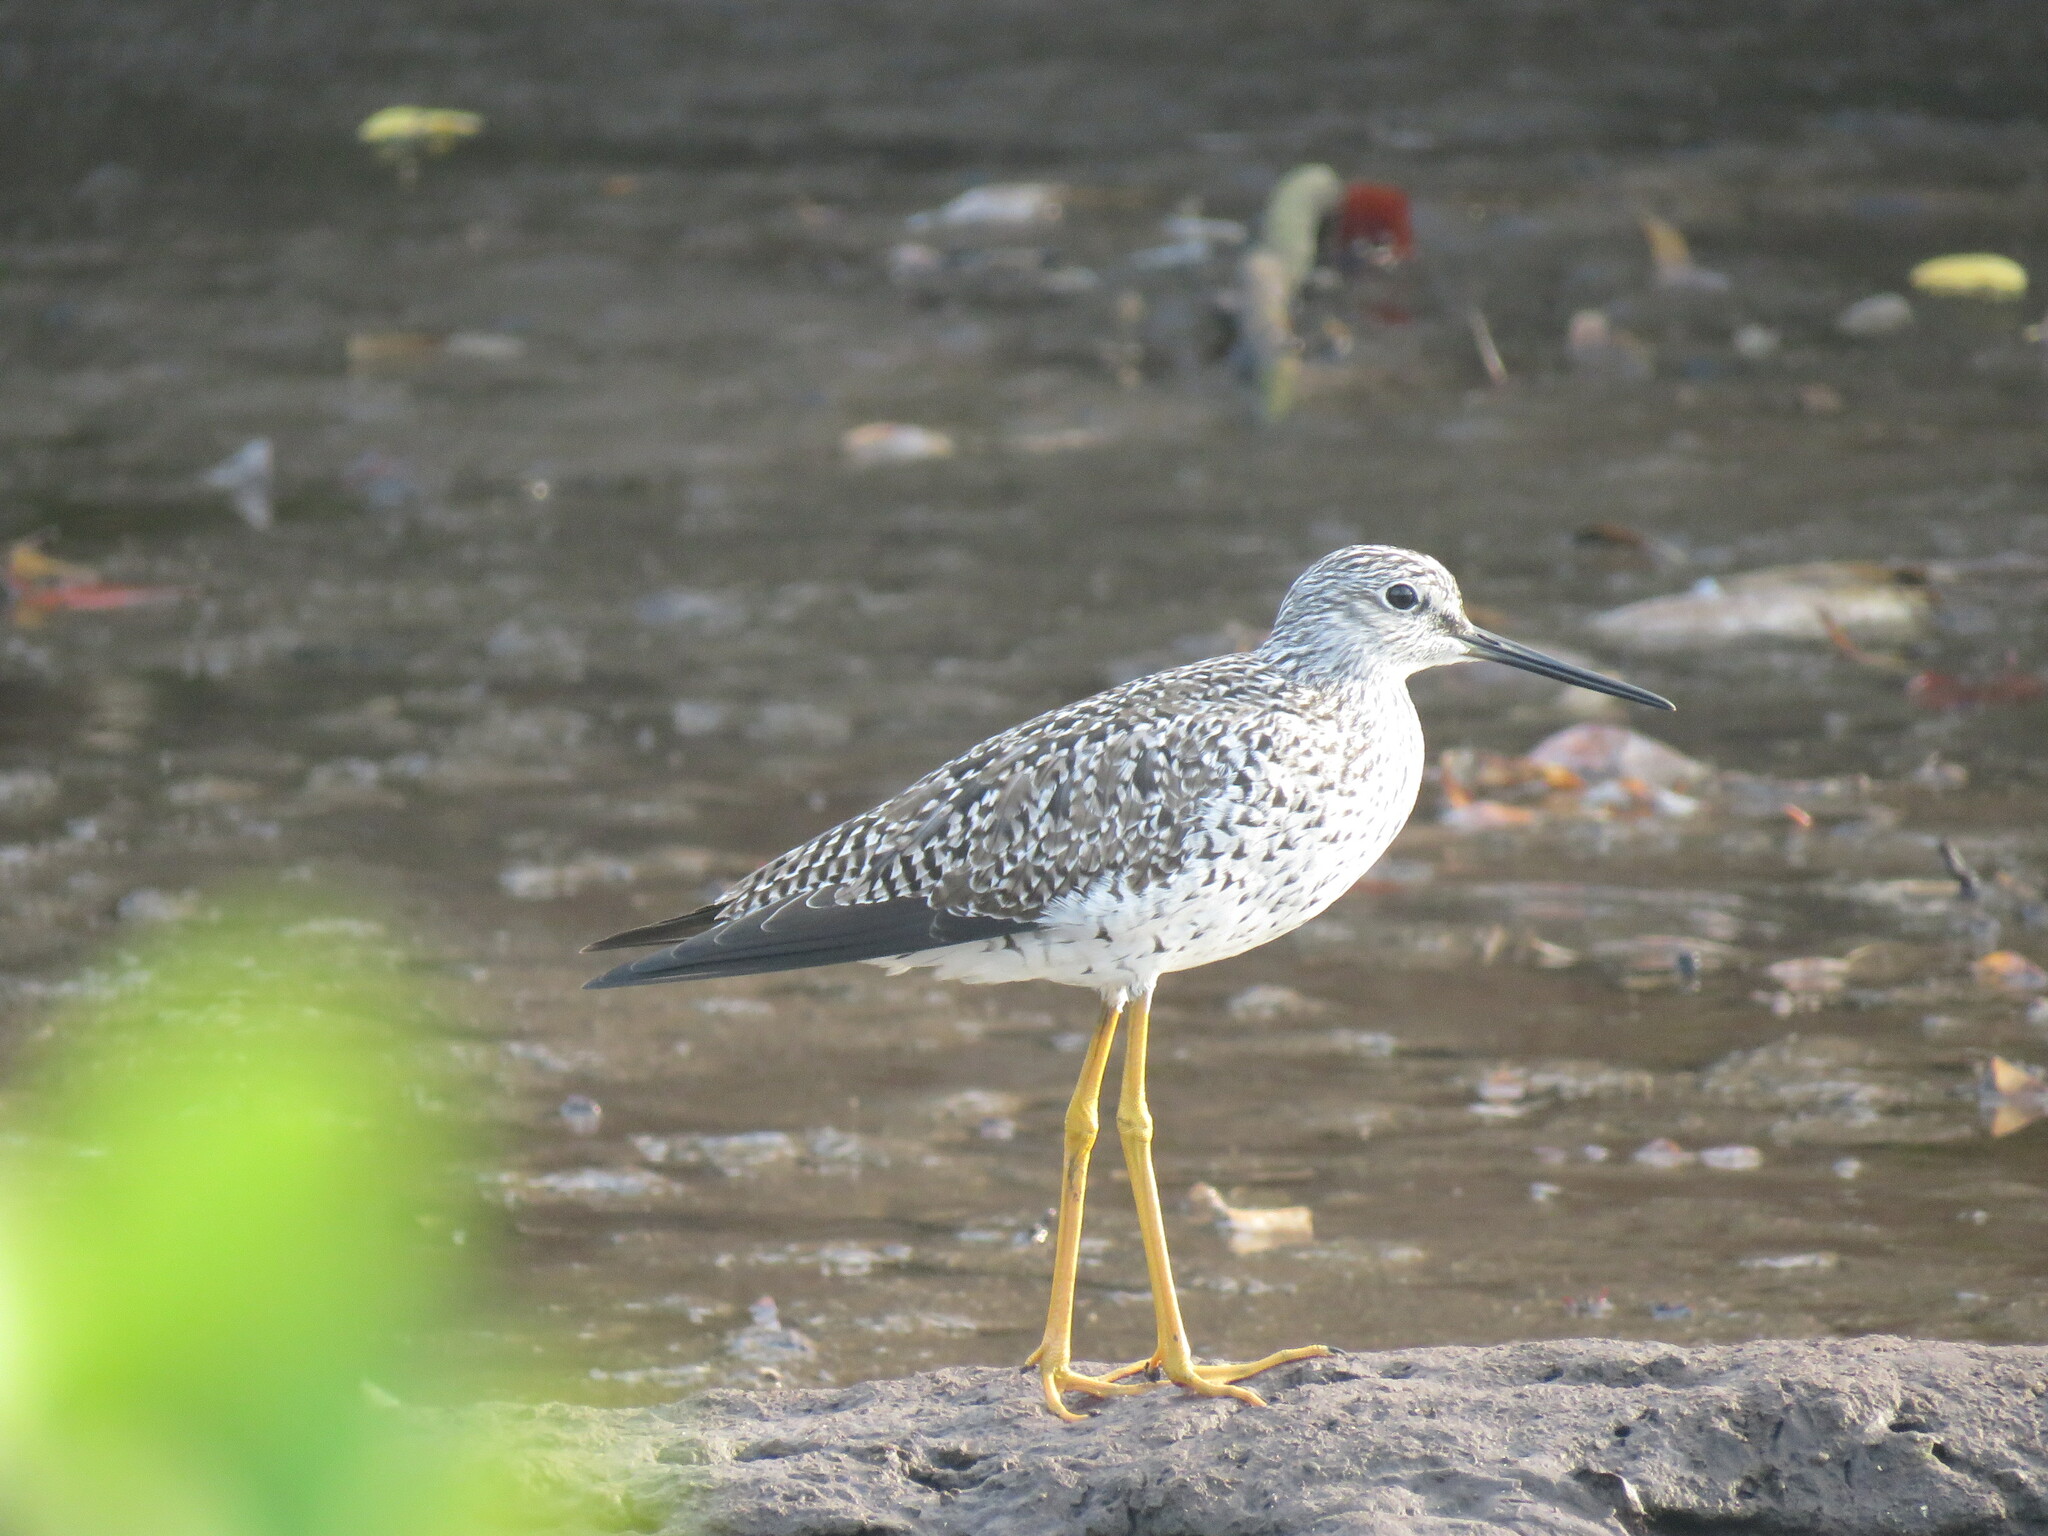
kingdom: Animalia
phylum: Chordata
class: Aves
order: Charadriiformes
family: Scolopacidae
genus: Tringa
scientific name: Tringa melanoleuca
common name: Greater yellowlegs
